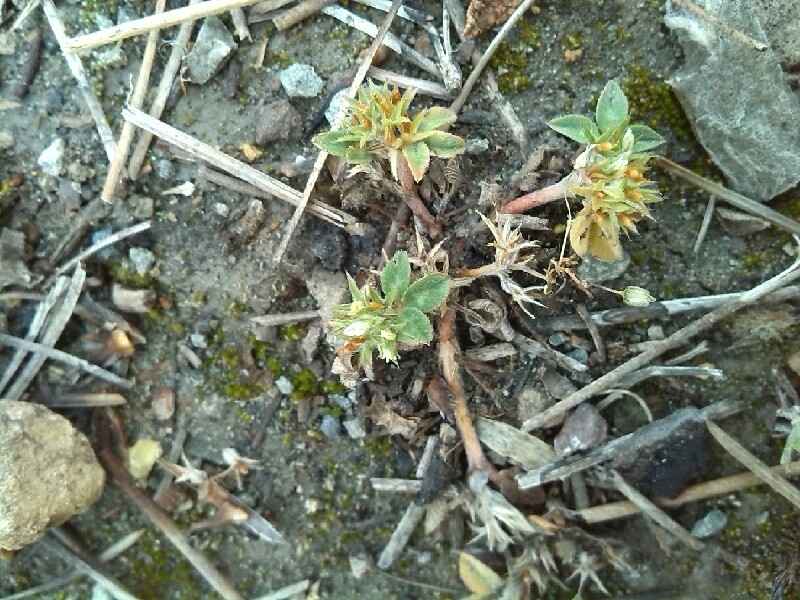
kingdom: Plantae
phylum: Tracheophyta
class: Magnoliopsida
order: Fabales
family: Fabaceae
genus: Trifolium
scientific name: Trifolium scabrum
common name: Rough clover
